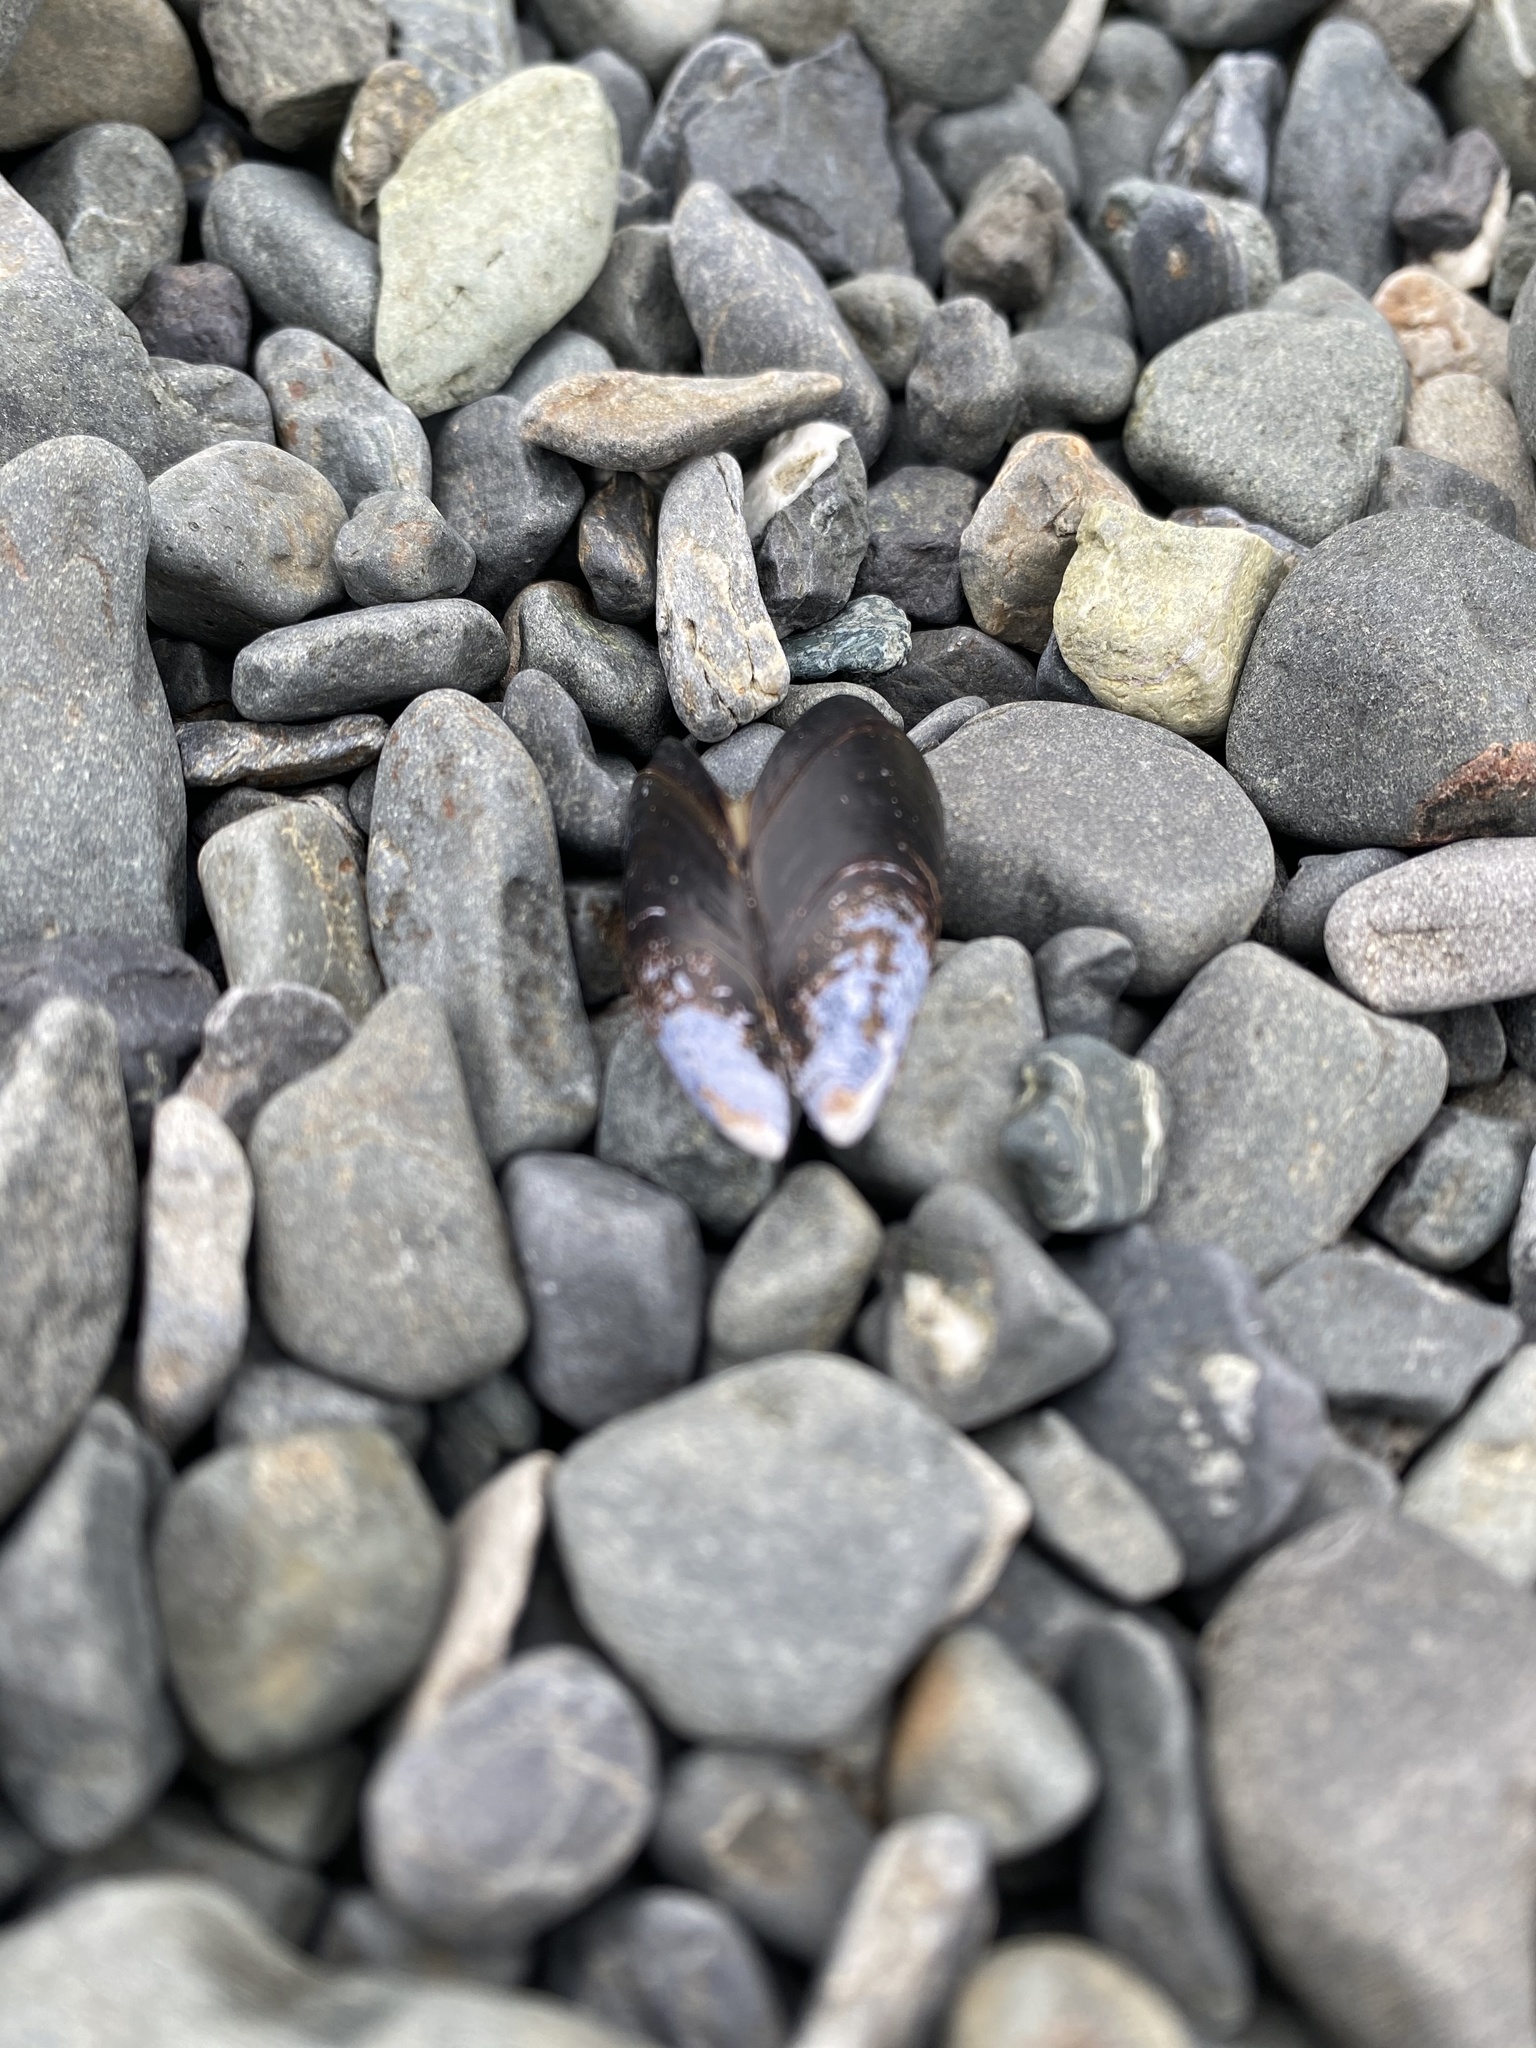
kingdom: Animalia
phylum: Mollusca
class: Bivalvia
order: Mytilida
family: Mytilidae
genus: Mytilus
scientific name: Mytilus trossulus
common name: Northern blue mussel
